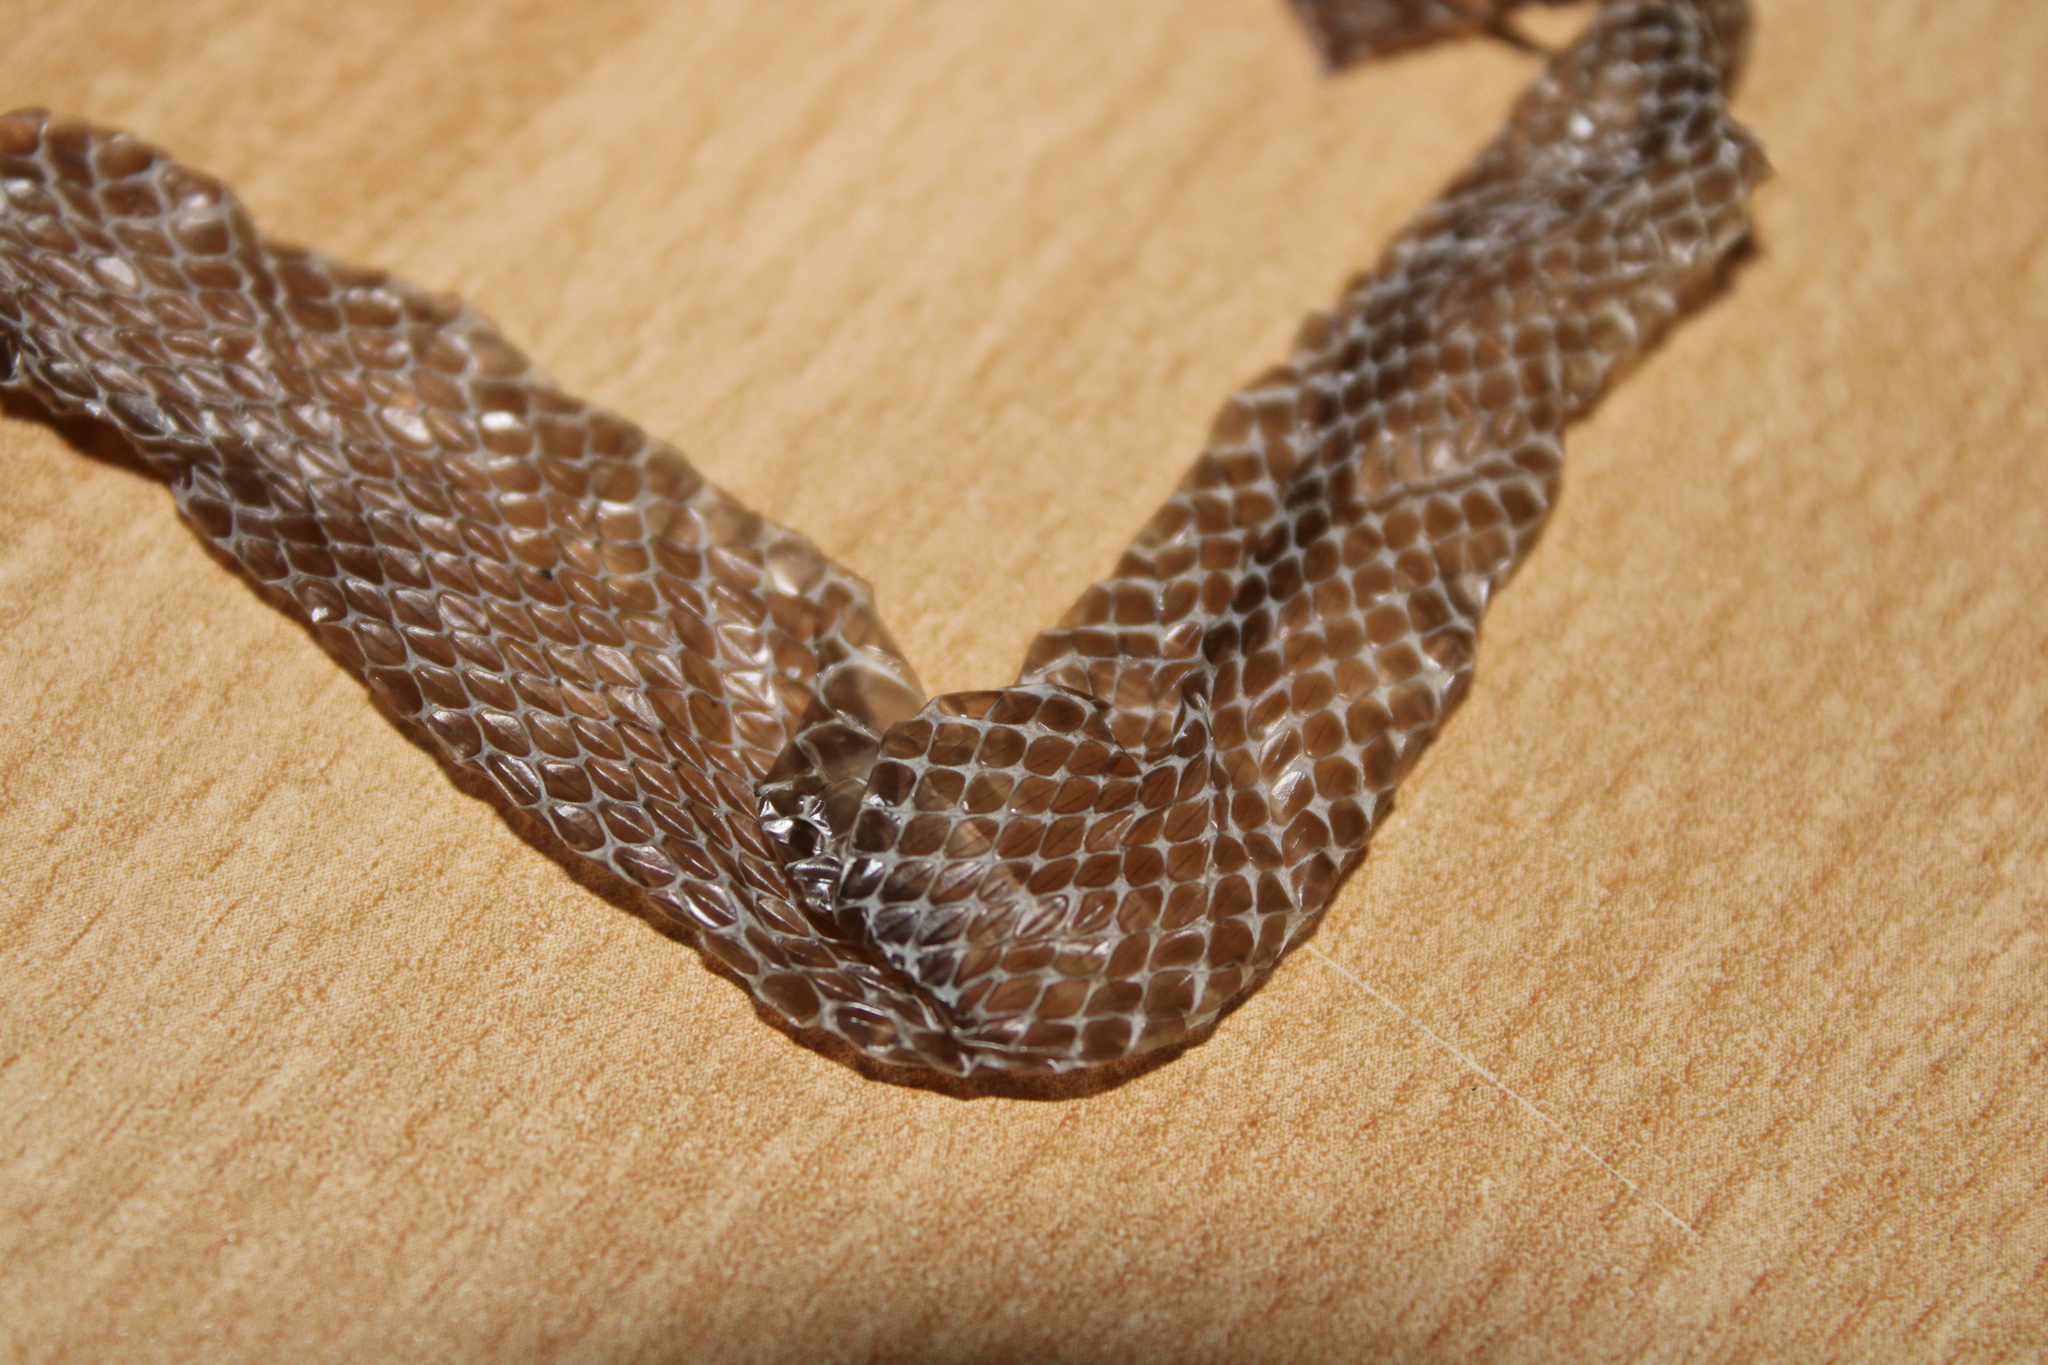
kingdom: Animalia
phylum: Chordata
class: Squamata
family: Colubridae
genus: Natrix
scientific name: Natrix natrix
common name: Grass snake
